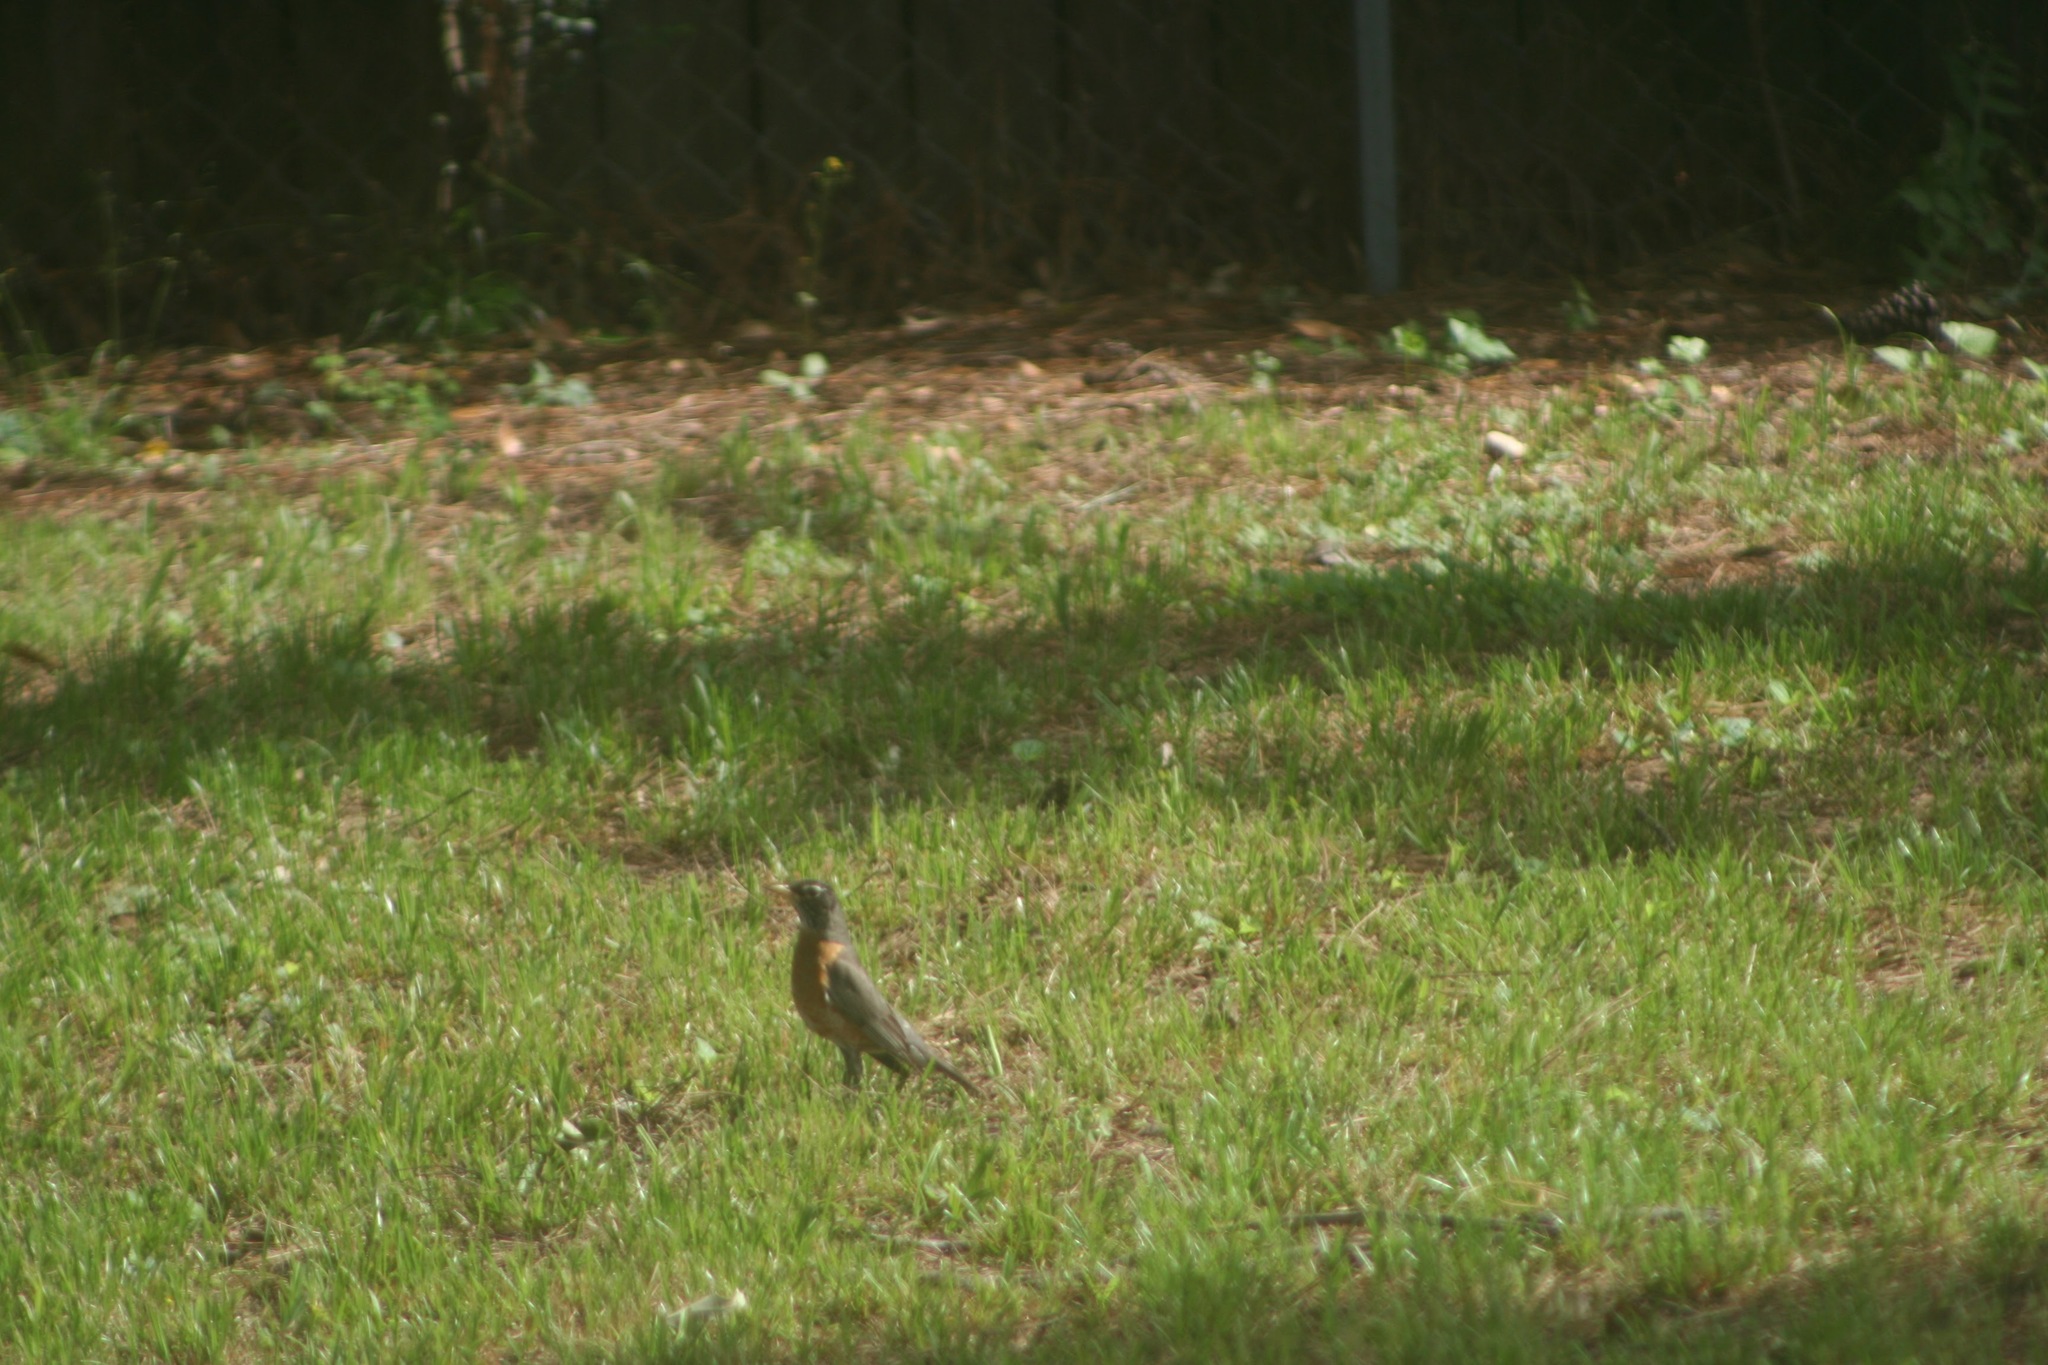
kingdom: Animalia
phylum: Chordata
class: Aves
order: Passeriformes
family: Turdidae
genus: Turdus
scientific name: Turdus migratorius
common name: American robin
